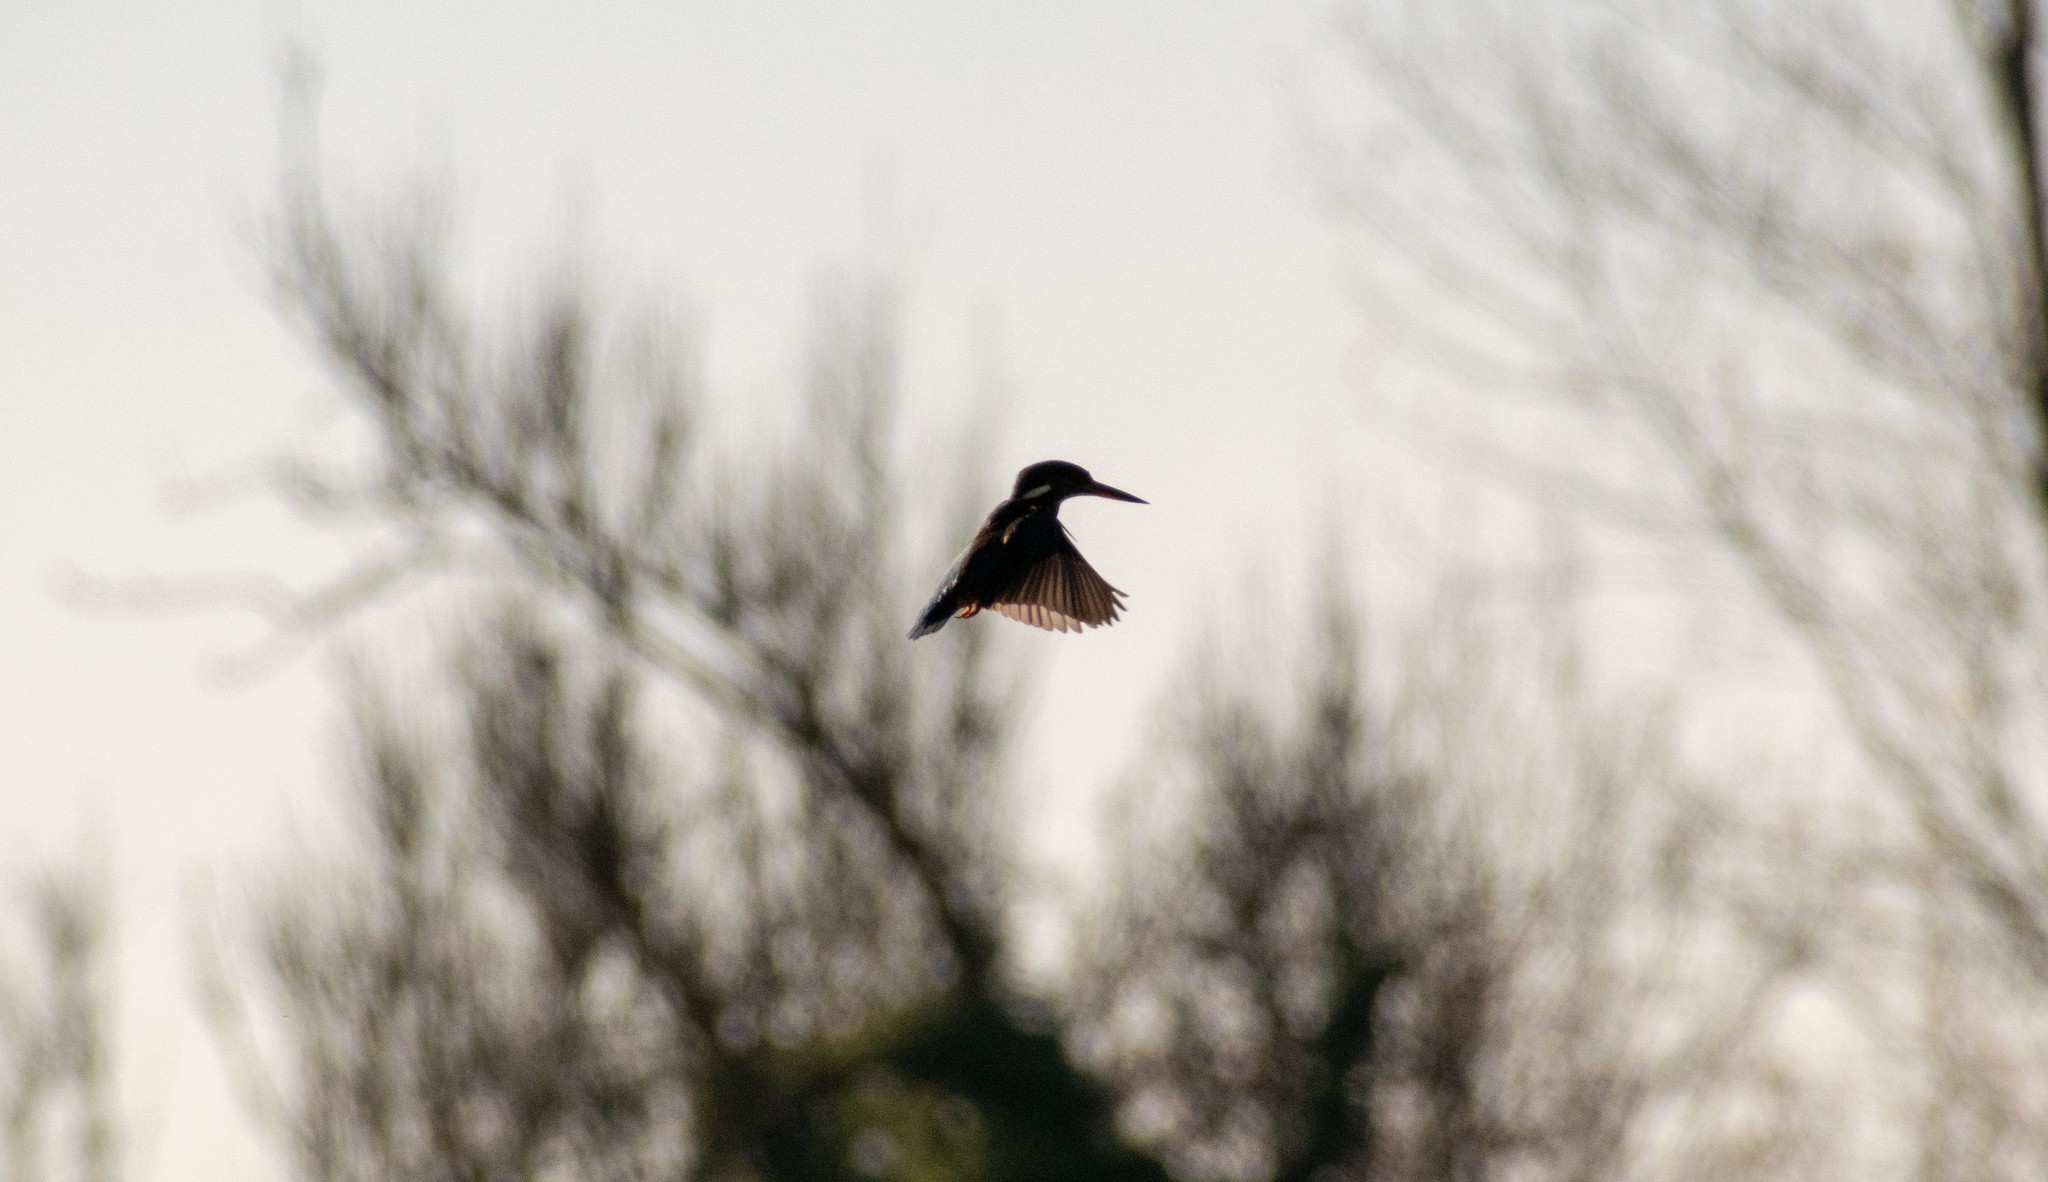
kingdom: Animalia
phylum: Chordata
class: Aves
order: Coraciiformes
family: Alcedinidae
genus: Alcedo
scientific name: Alcedo atthis
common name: Common kingfisher
